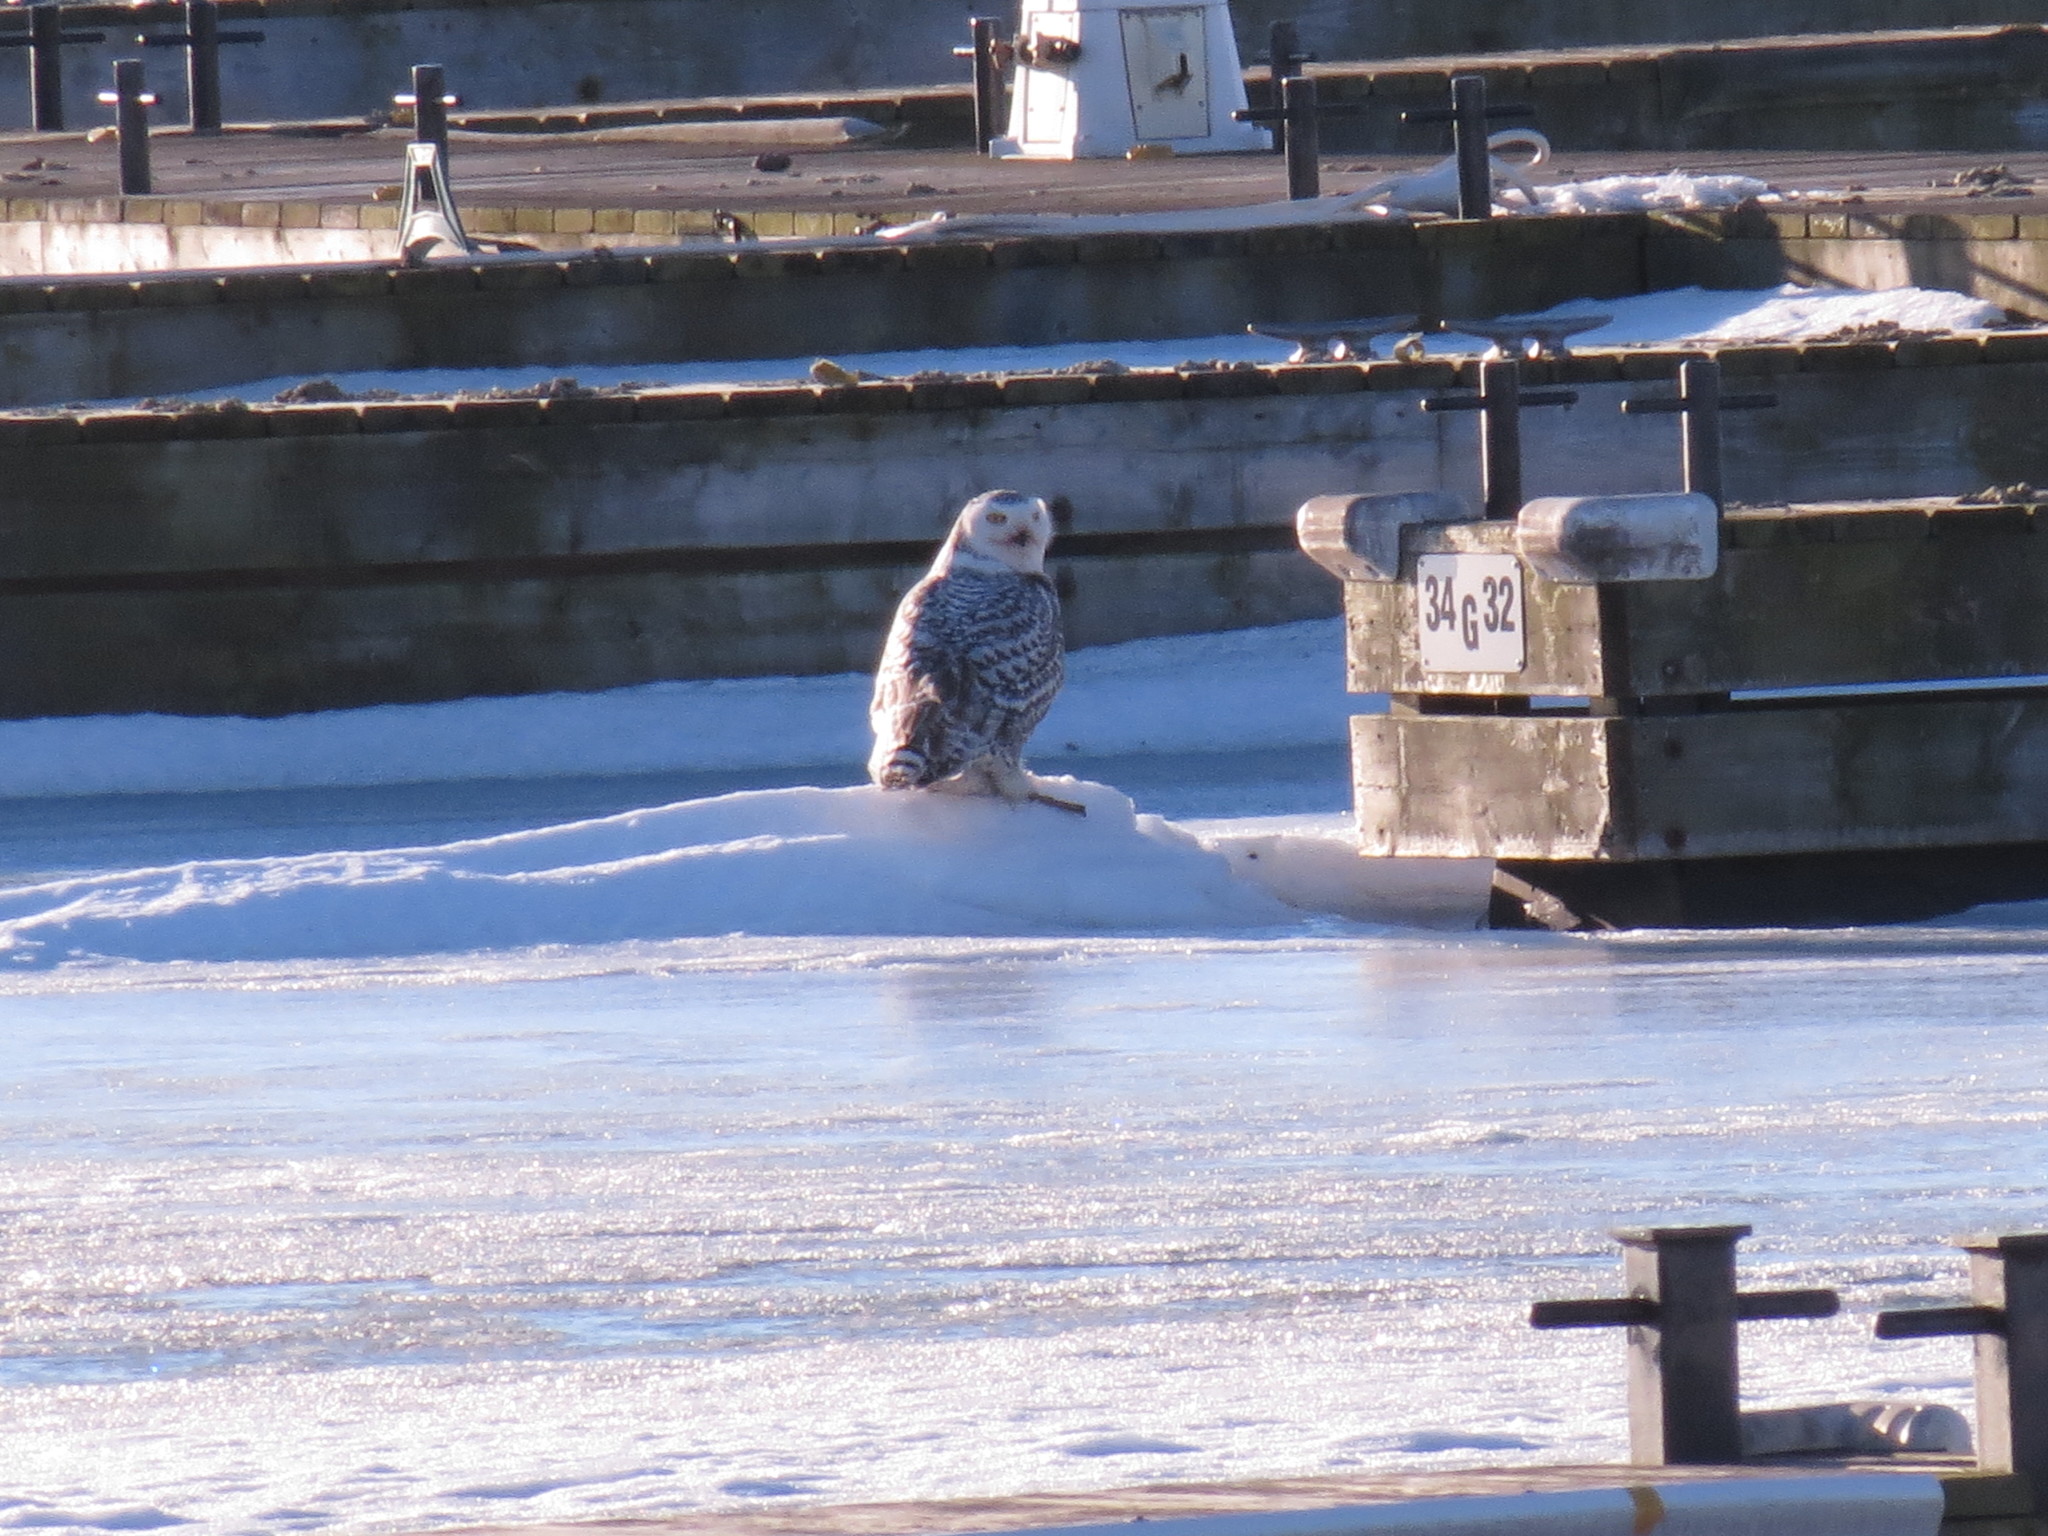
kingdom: Animalia
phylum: Chordata
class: Aves
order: Strigiformes
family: Strigidae
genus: Bubo
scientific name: Bubo scandiacus
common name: Snowy owl
